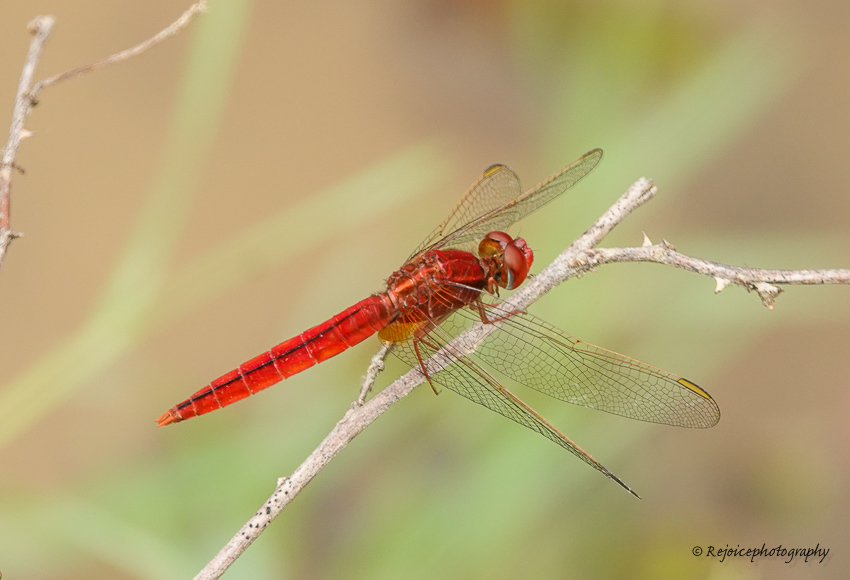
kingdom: Animalia
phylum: Arthropoda
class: Insecta
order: Odonata
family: Libellulidae
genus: Crocothemis
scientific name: Crocothemis servilia
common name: Scarlet skimmer
